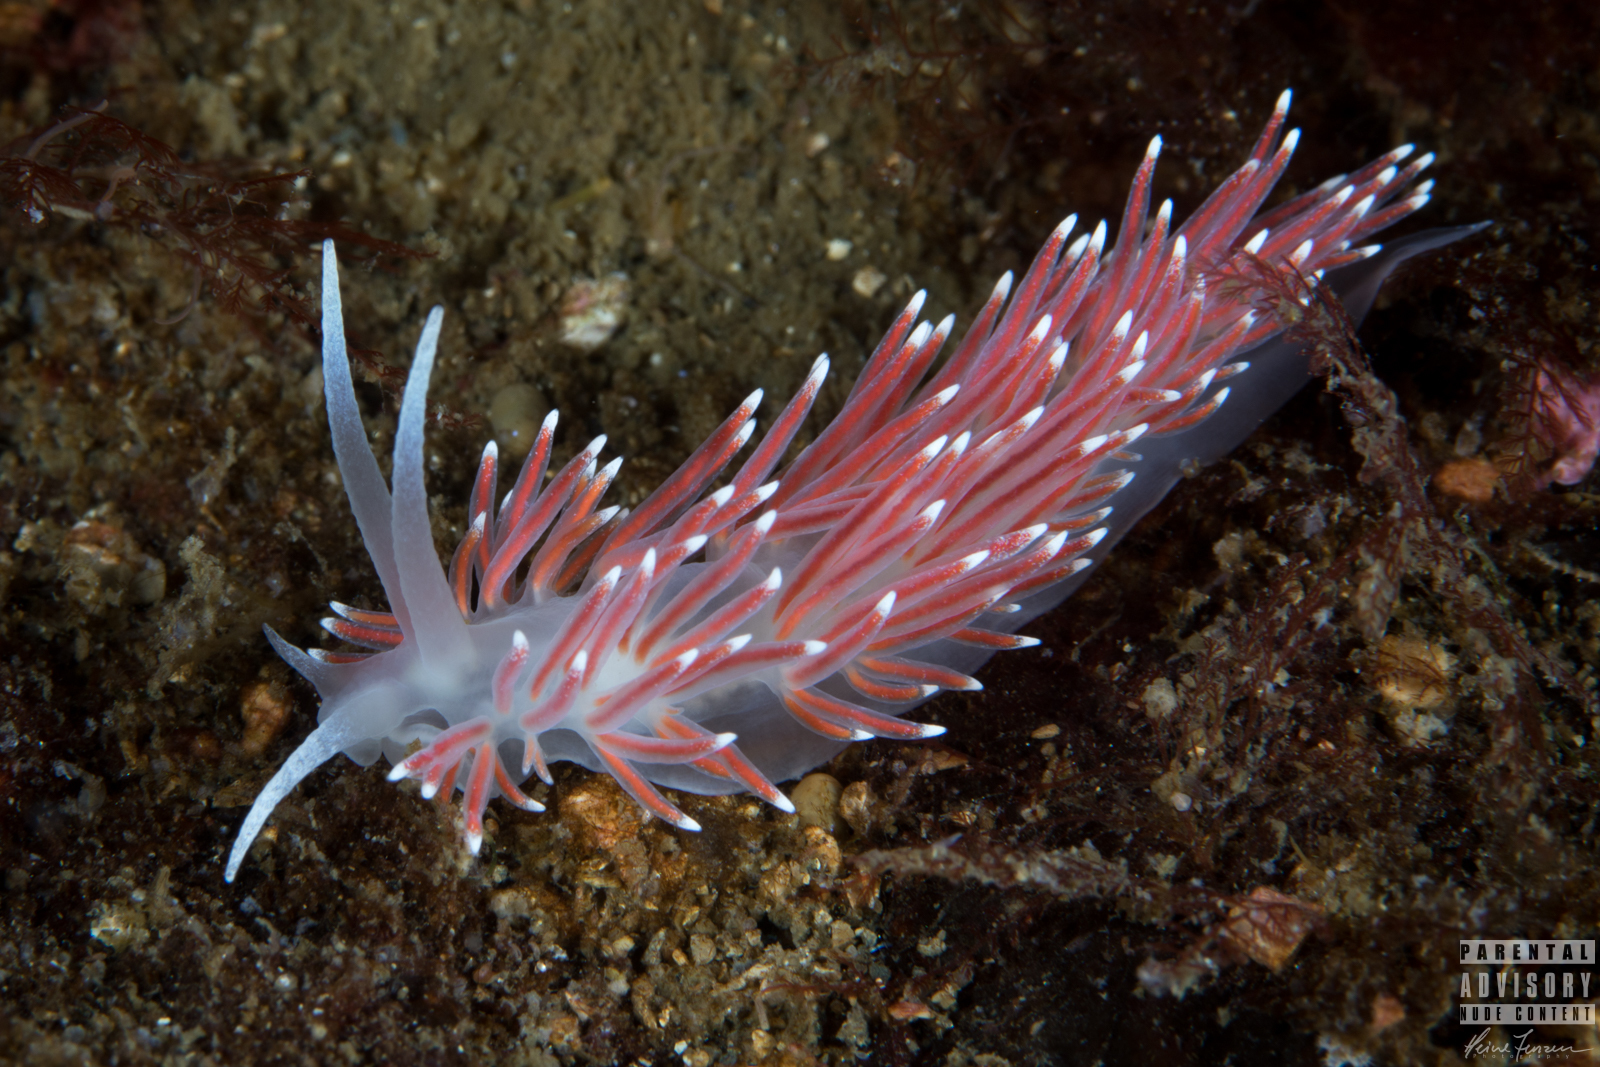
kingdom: Animalia
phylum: Mollusca
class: Gastropoda
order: Nudibranchia
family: Flabellinidae
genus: Carronella
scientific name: Carronella pellucida
